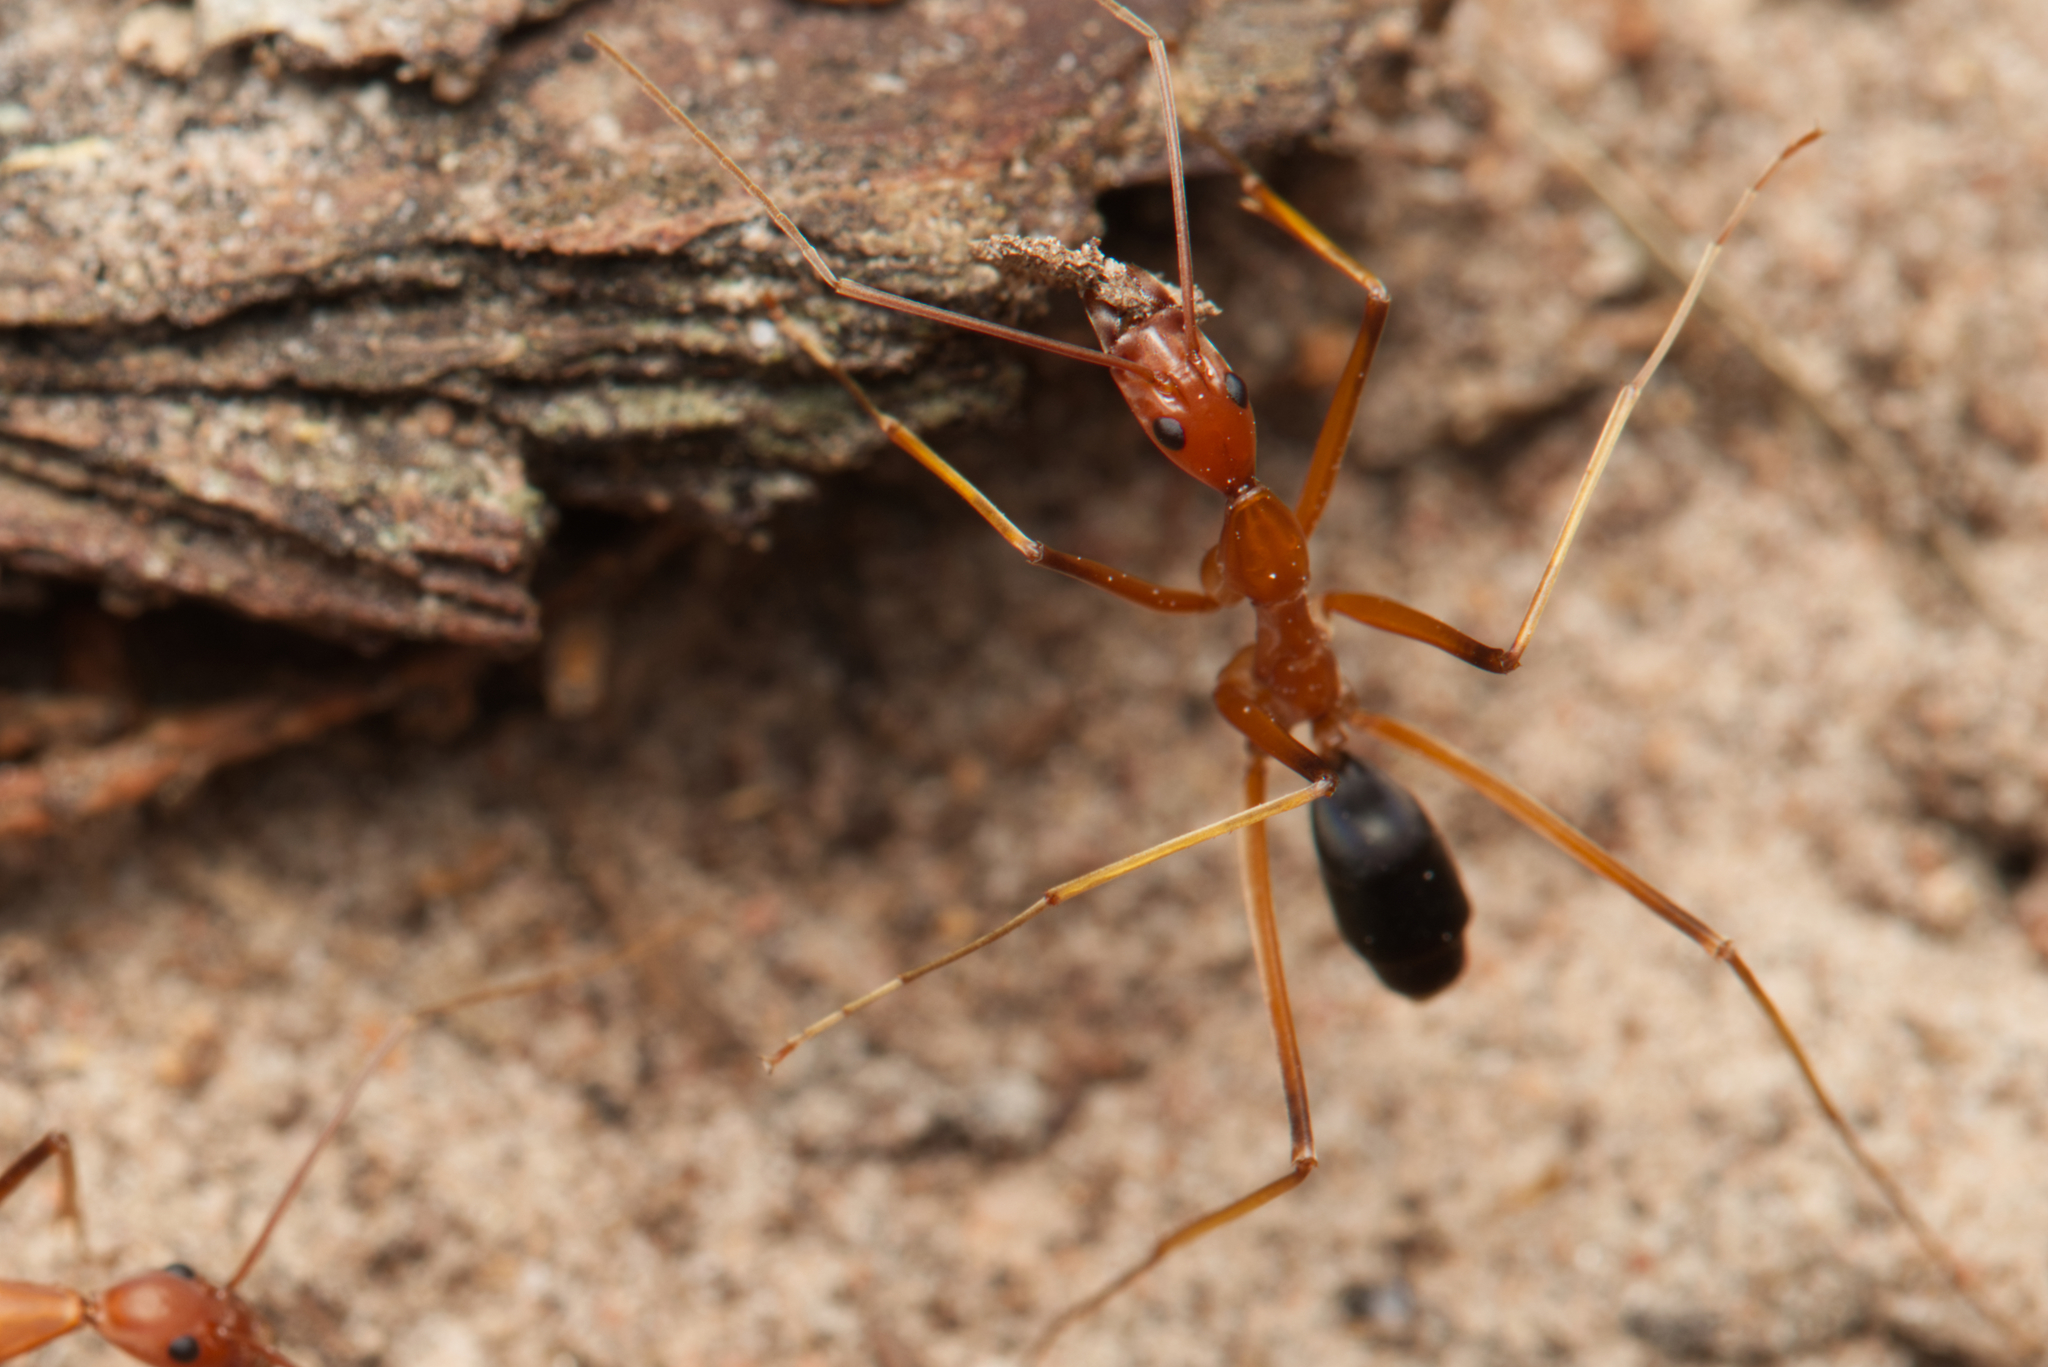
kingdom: Animalia
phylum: Arthropoda
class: Insecta
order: Hymenoptera
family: Formicidae
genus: Leptomyrmex
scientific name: Leptomyrmex rufipes
